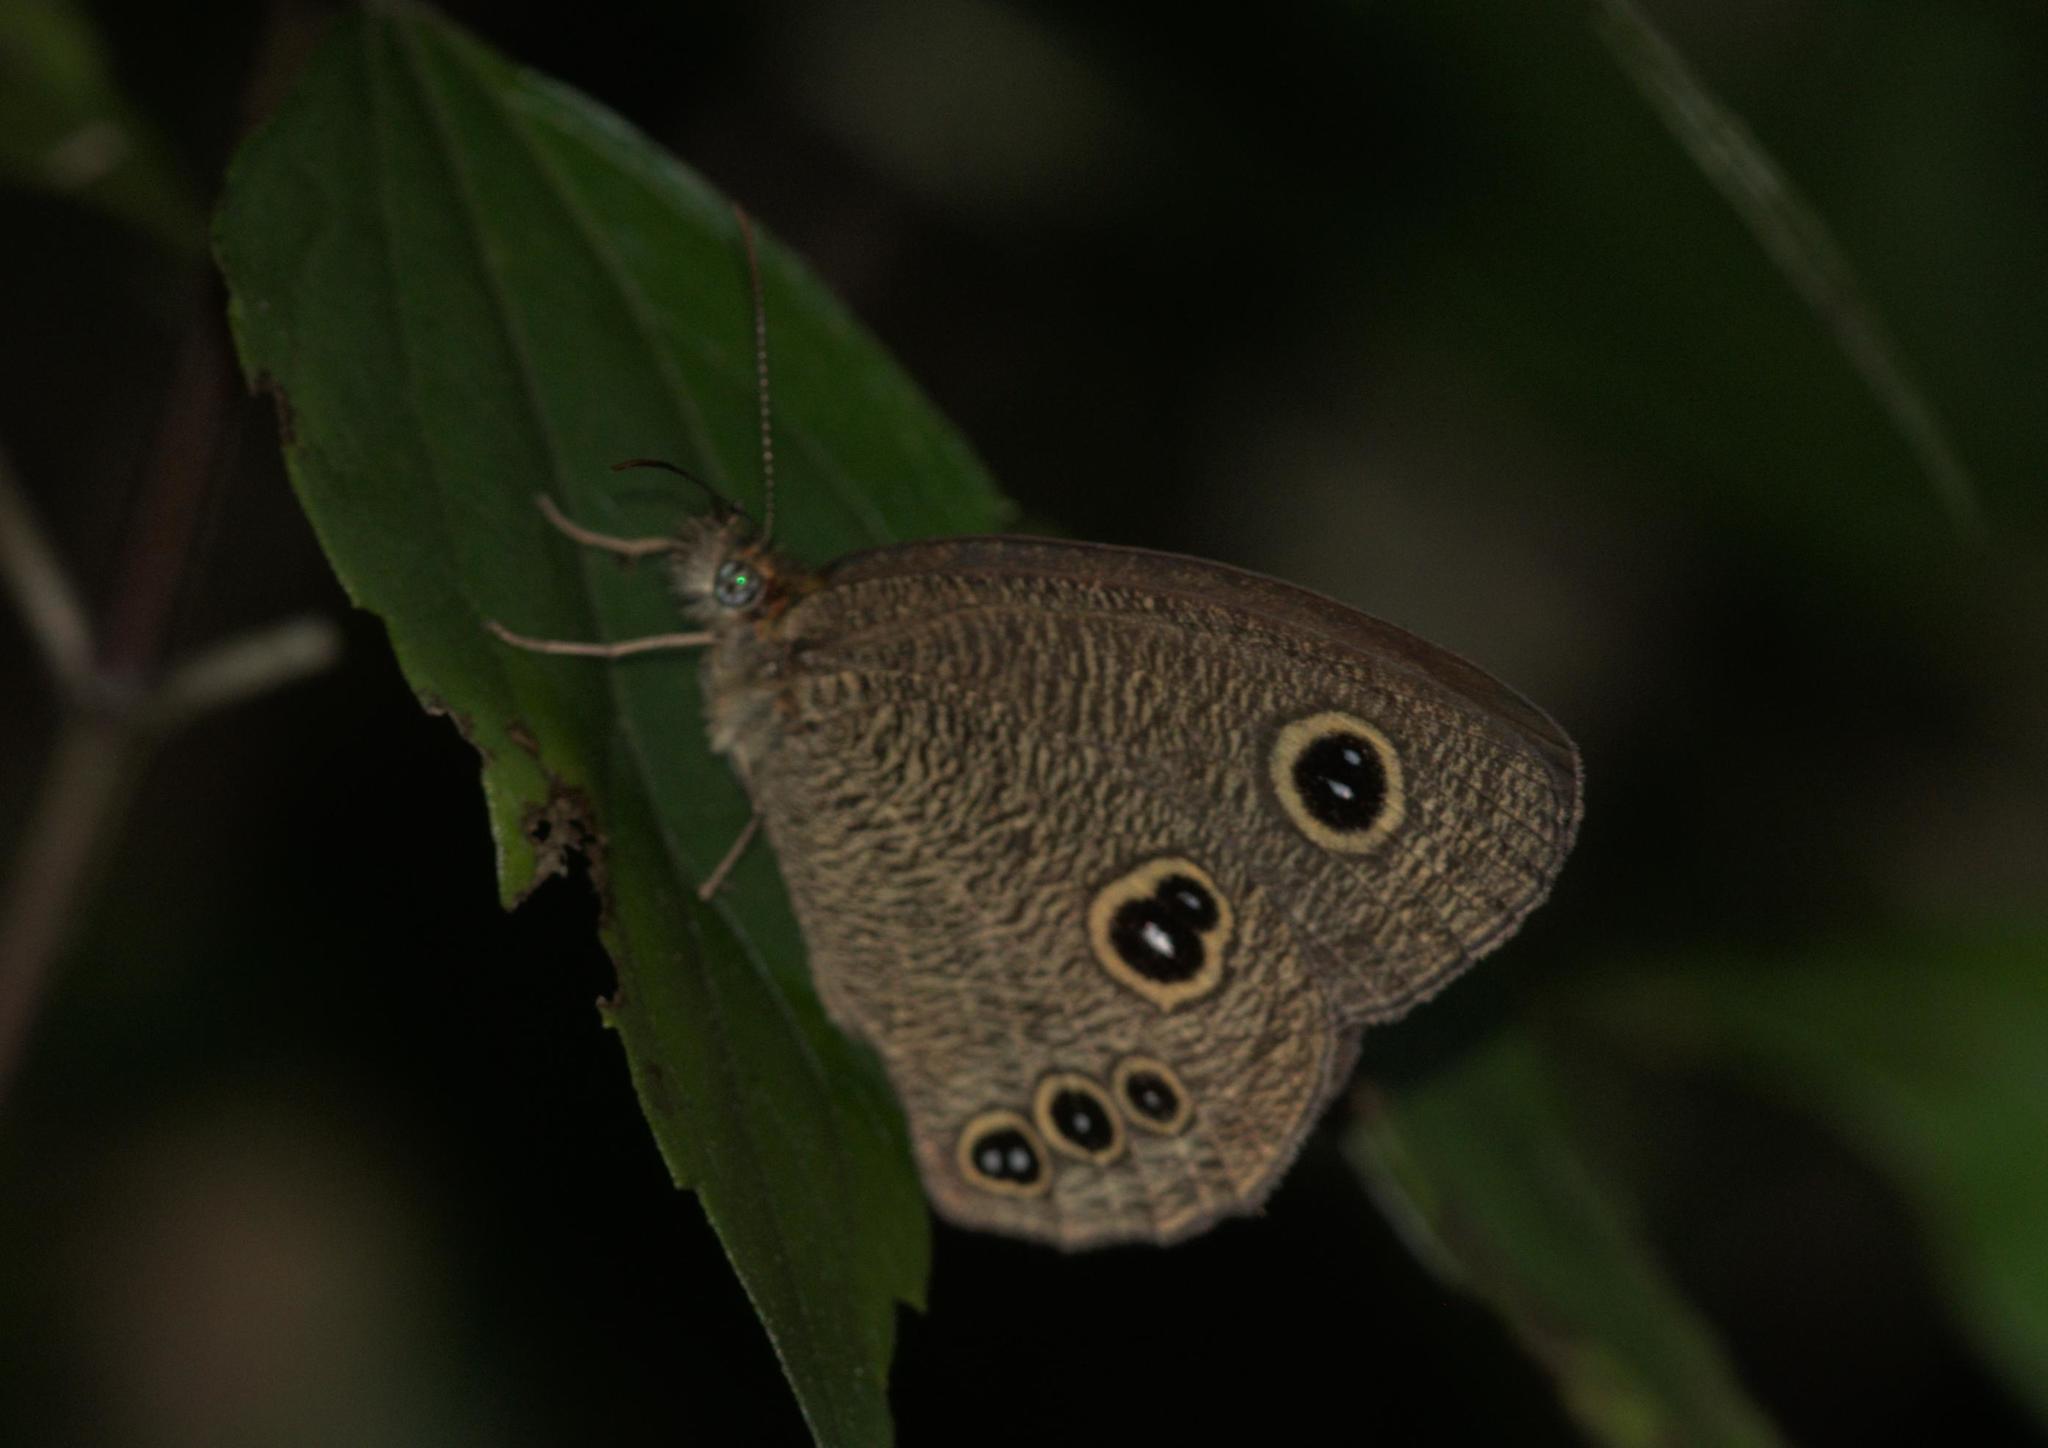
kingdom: Animalia
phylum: Arthropoda
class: Insecta
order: Lepidoptera
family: Nymphalidae
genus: Ypthima
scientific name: Ypthima nikaea
